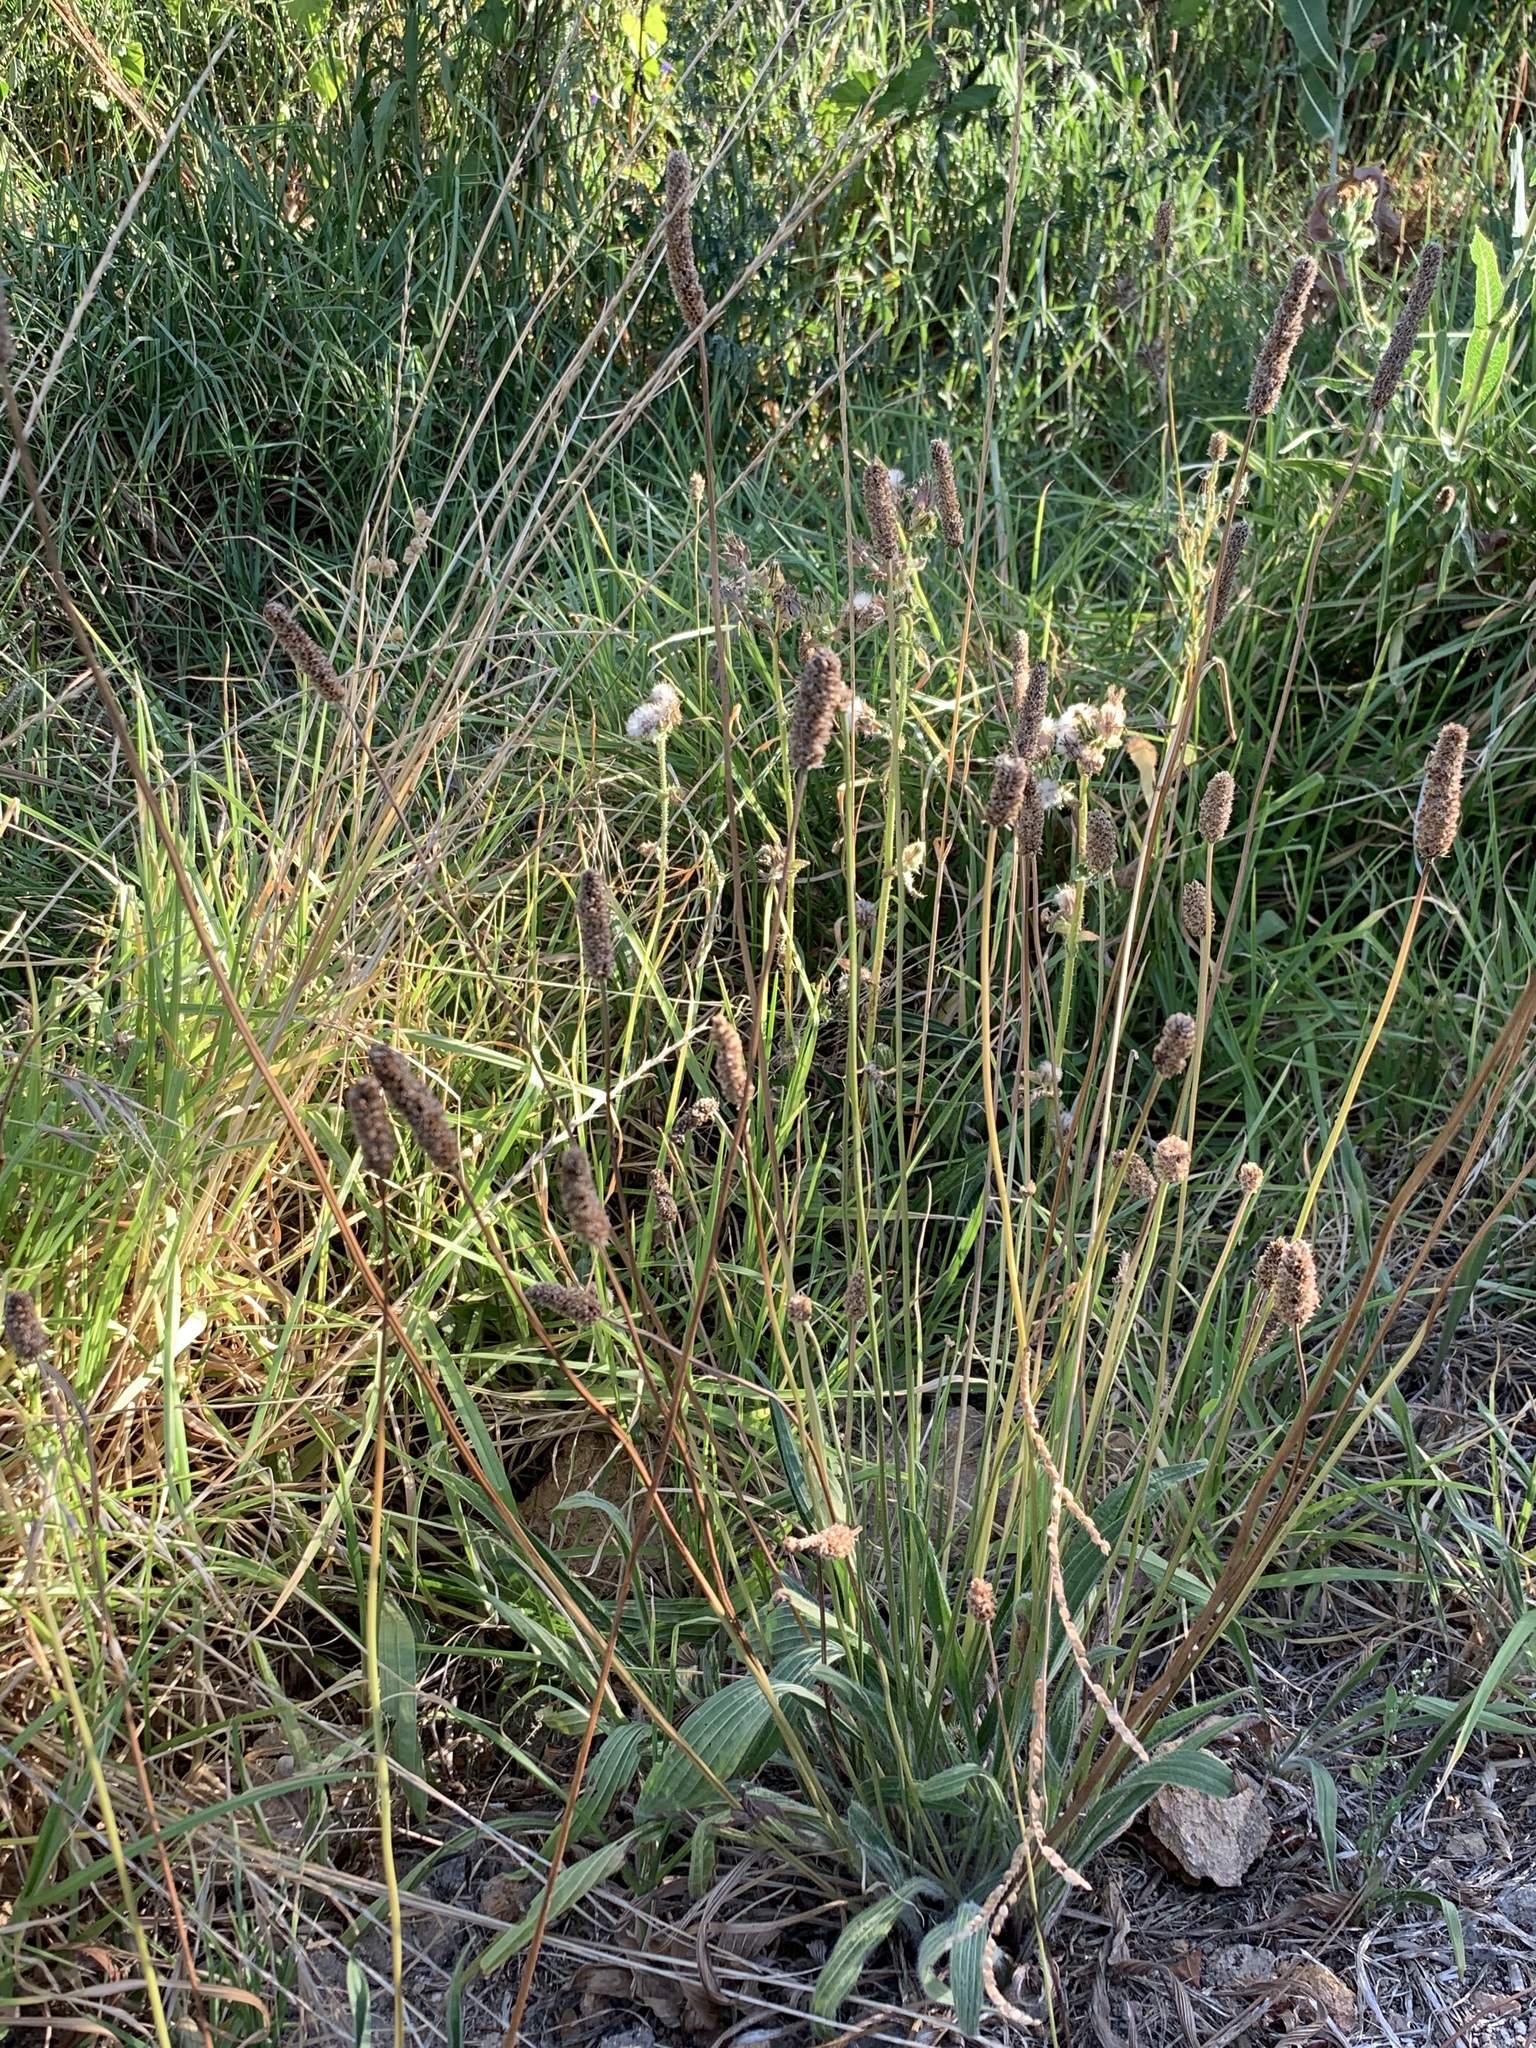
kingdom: Plantae
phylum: Tracheophyta
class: Magnoliopsida
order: Lamiales
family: Plantaginaceae
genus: Plantago
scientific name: Plantago lanceolata
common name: Ribwort plantain
